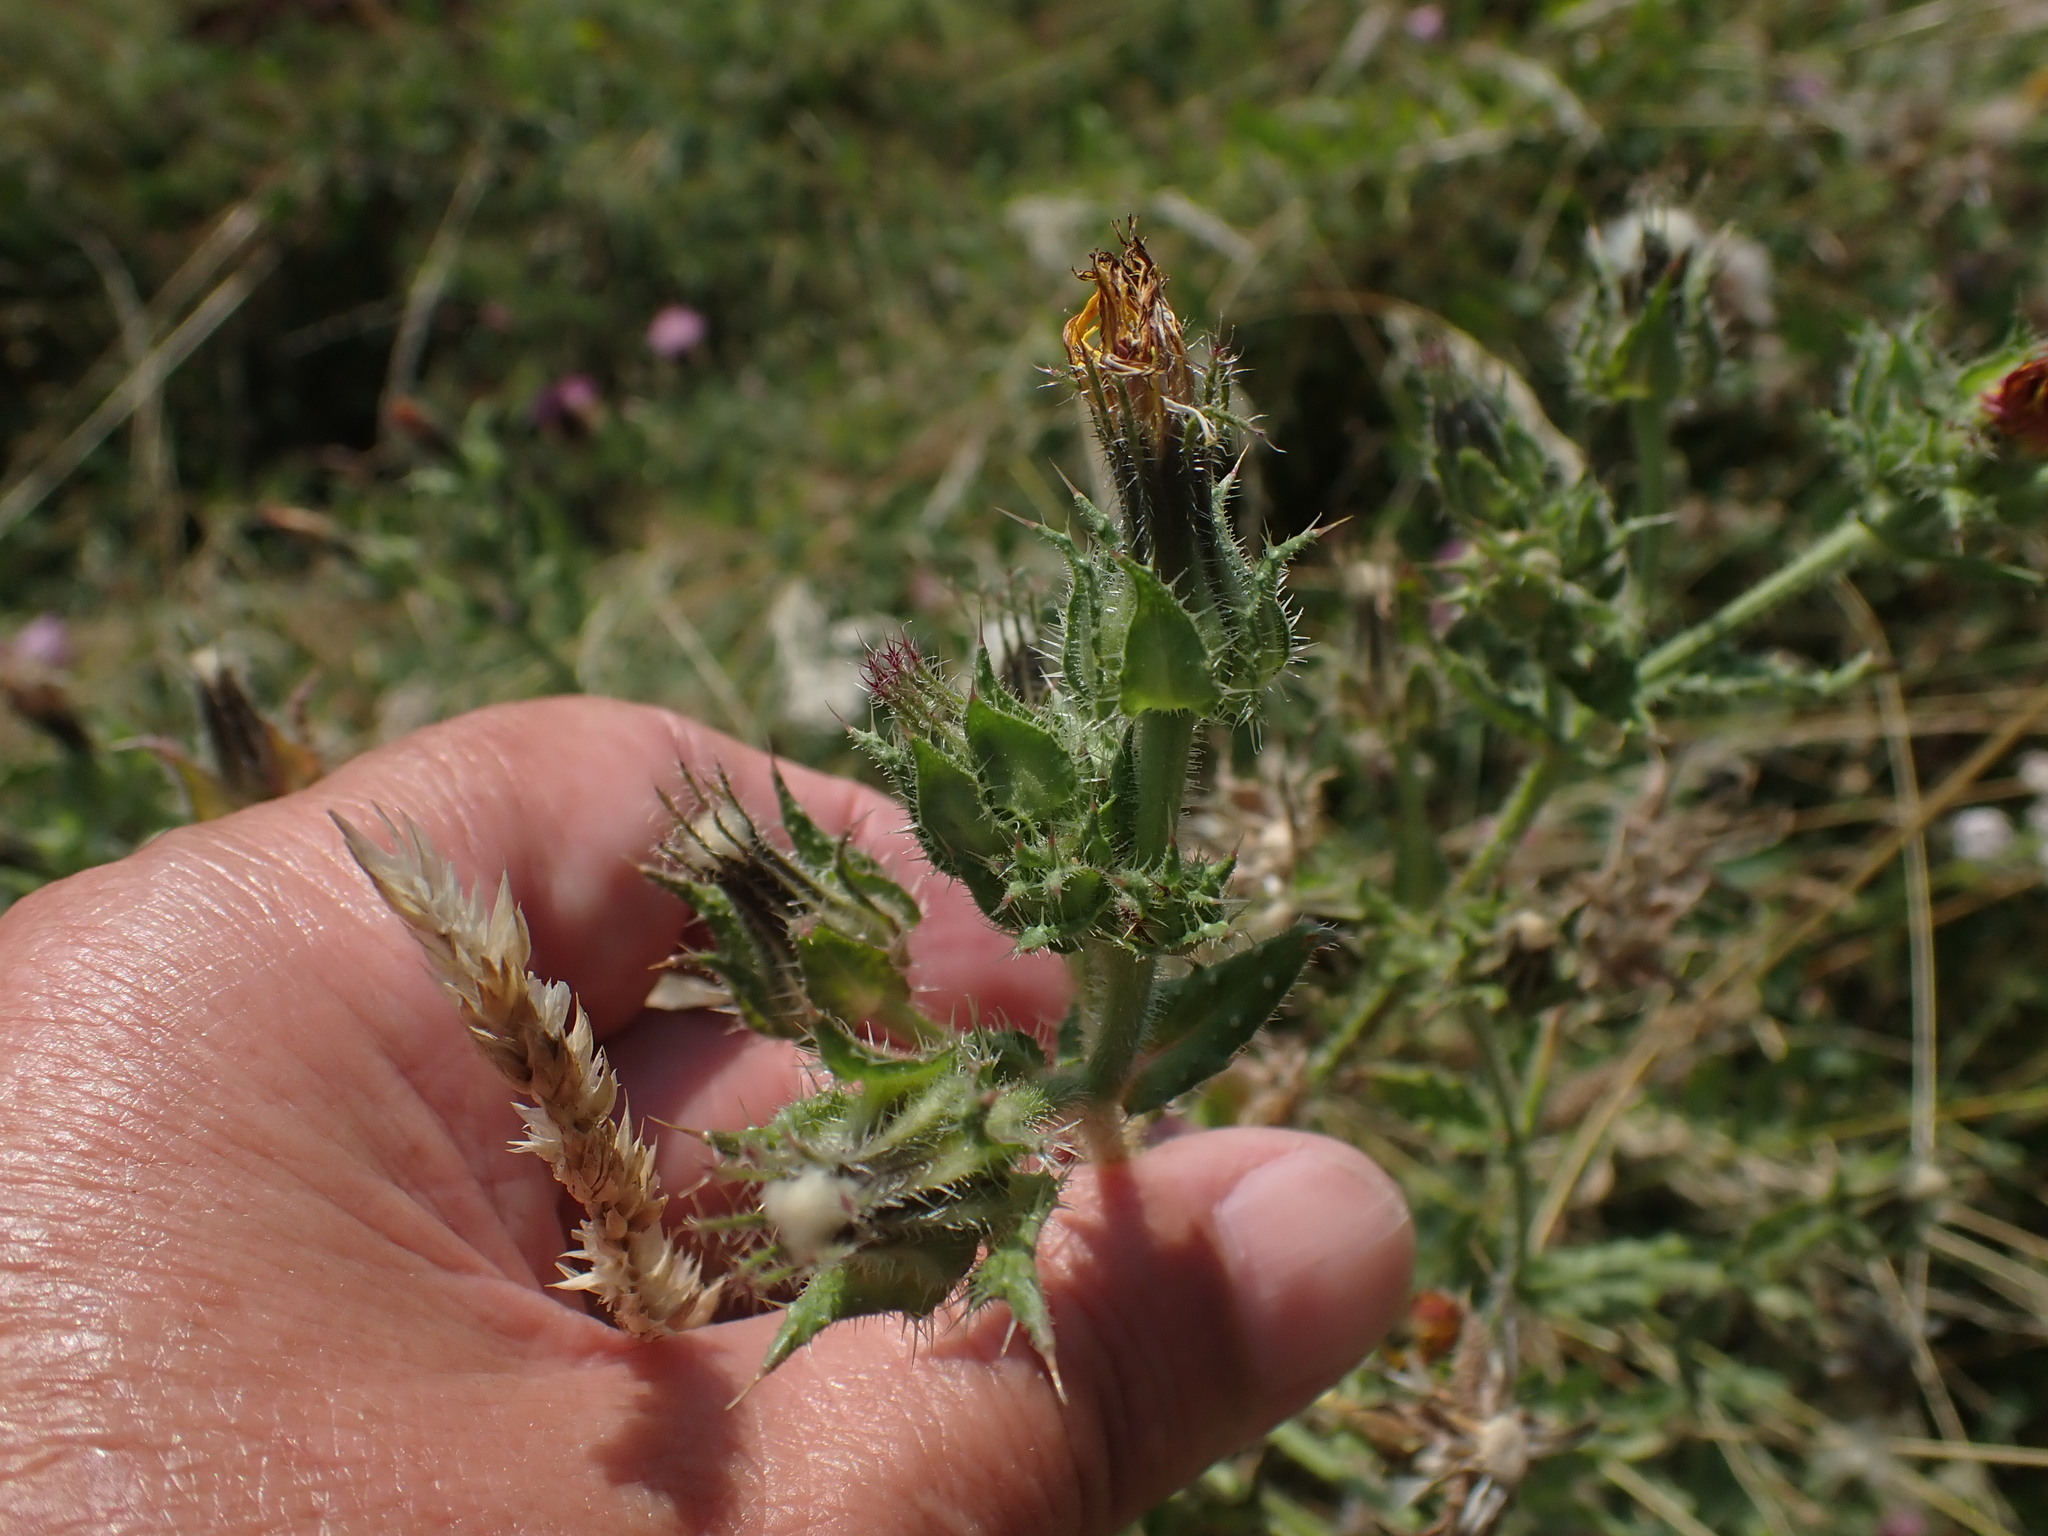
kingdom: Plantae
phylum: Tracheophyta
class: Magnoliopsida
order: Asterales
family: Asteraceae
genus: Helminthotheca
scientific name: Helminthotheca echioides
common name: Ox-tongue
